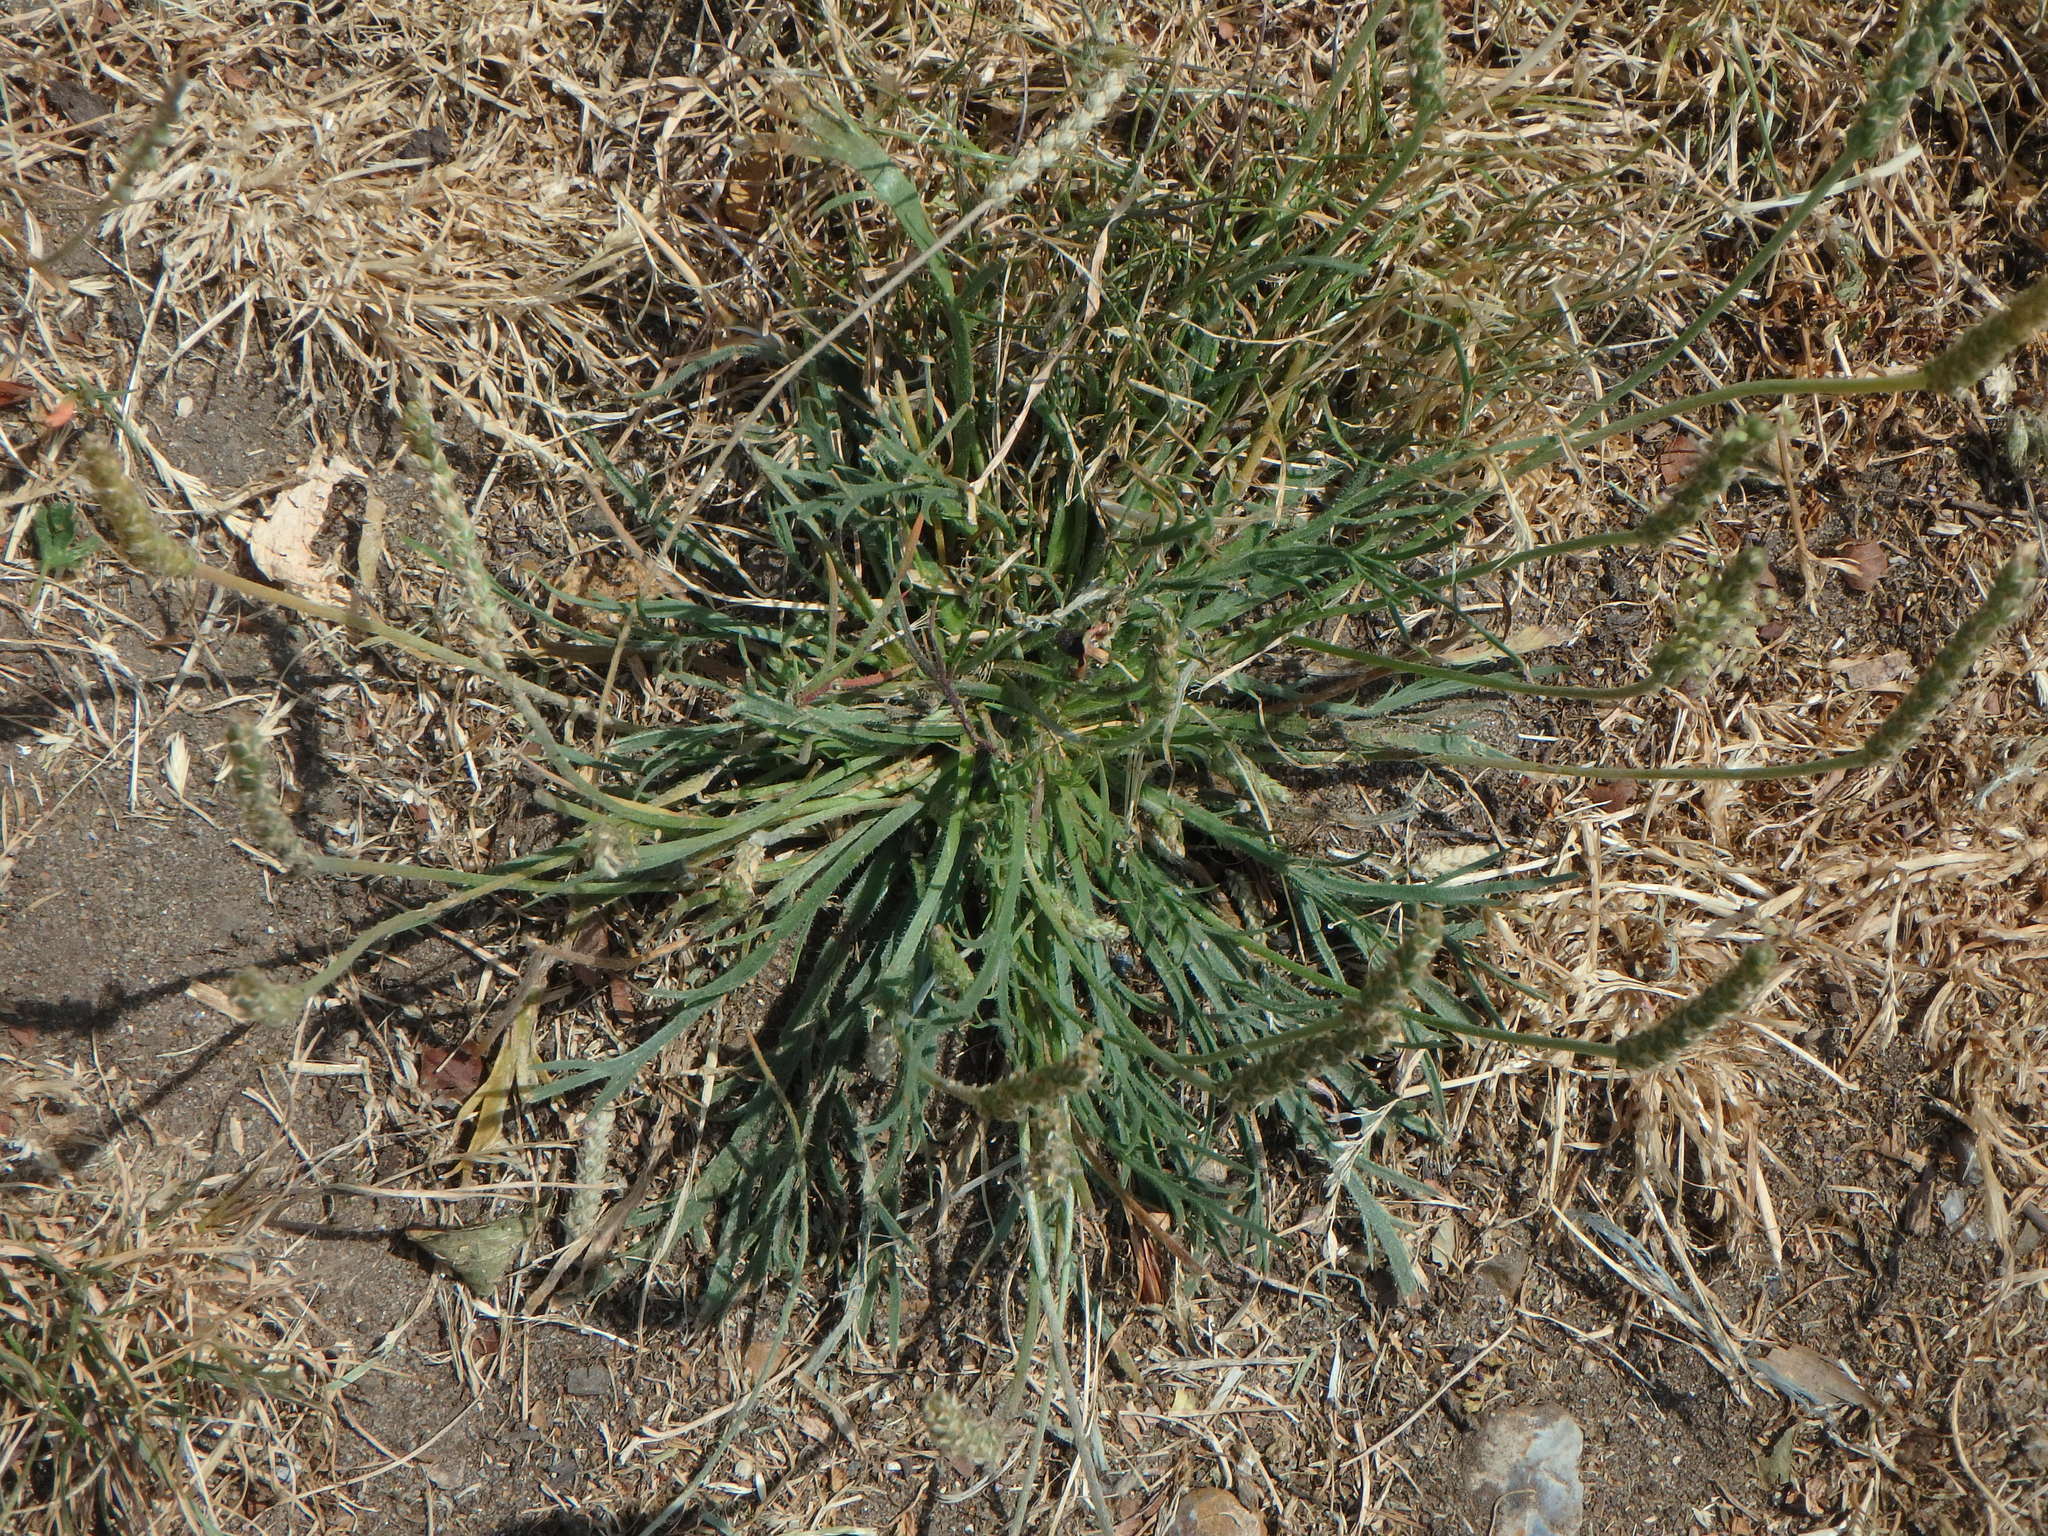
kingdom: Plantae
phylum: Tracheophyta
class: Magnoliopsida
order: Lamiales
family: Plantaginaceae
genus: Plantago
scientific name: Plantago coronopus
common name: Buck's-horn plantain
